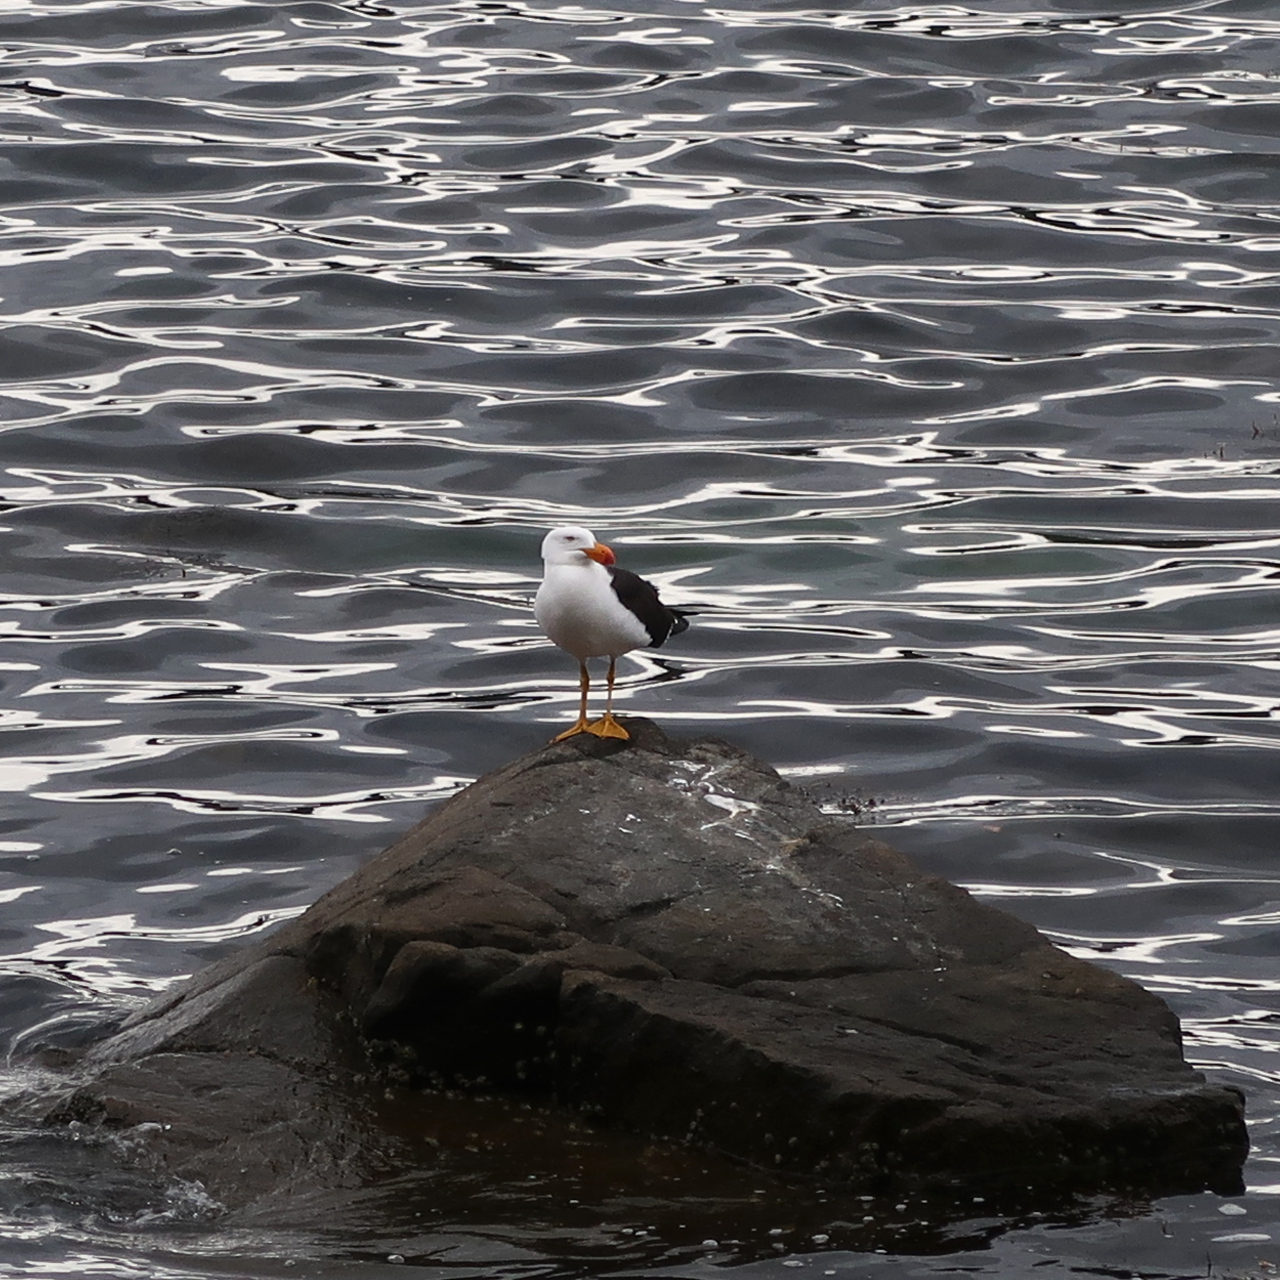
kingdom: Animalia
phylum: Chordata
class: Aves
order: Charadriiformes
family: Laridae
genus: Larus
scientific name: Larus pacificus
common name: Pacific gull
